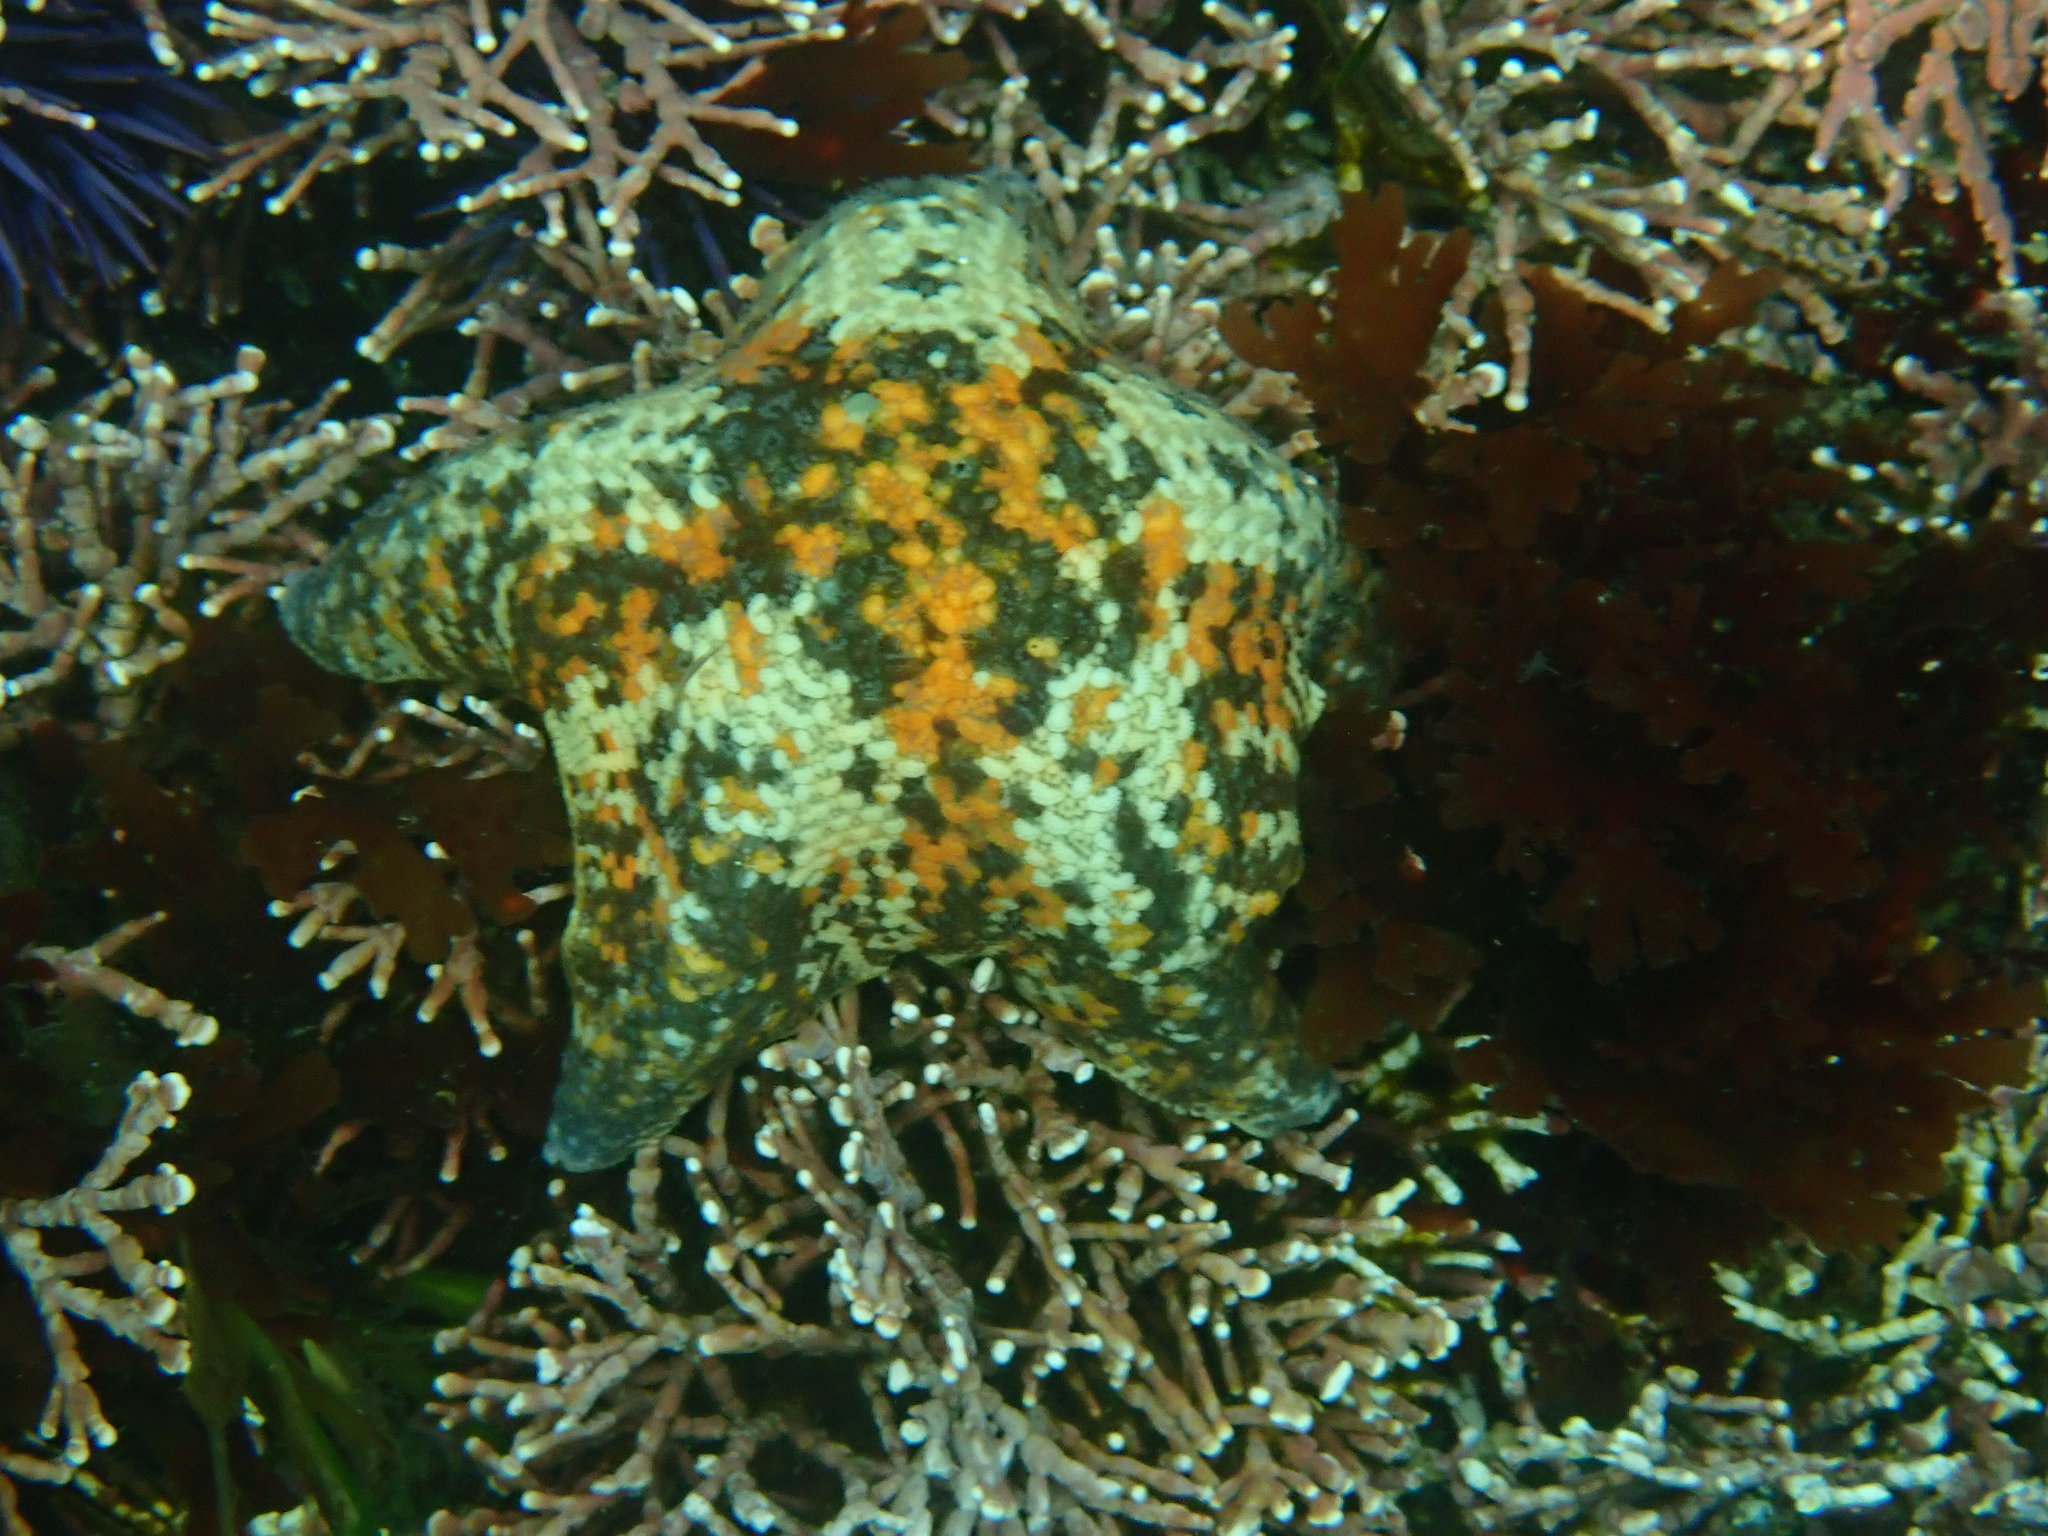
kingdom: Animalia
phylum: Echinodermata
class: Asteroidea
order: Valvatida
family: Asterinidae
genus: Patiria
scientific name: Patiria miniata
